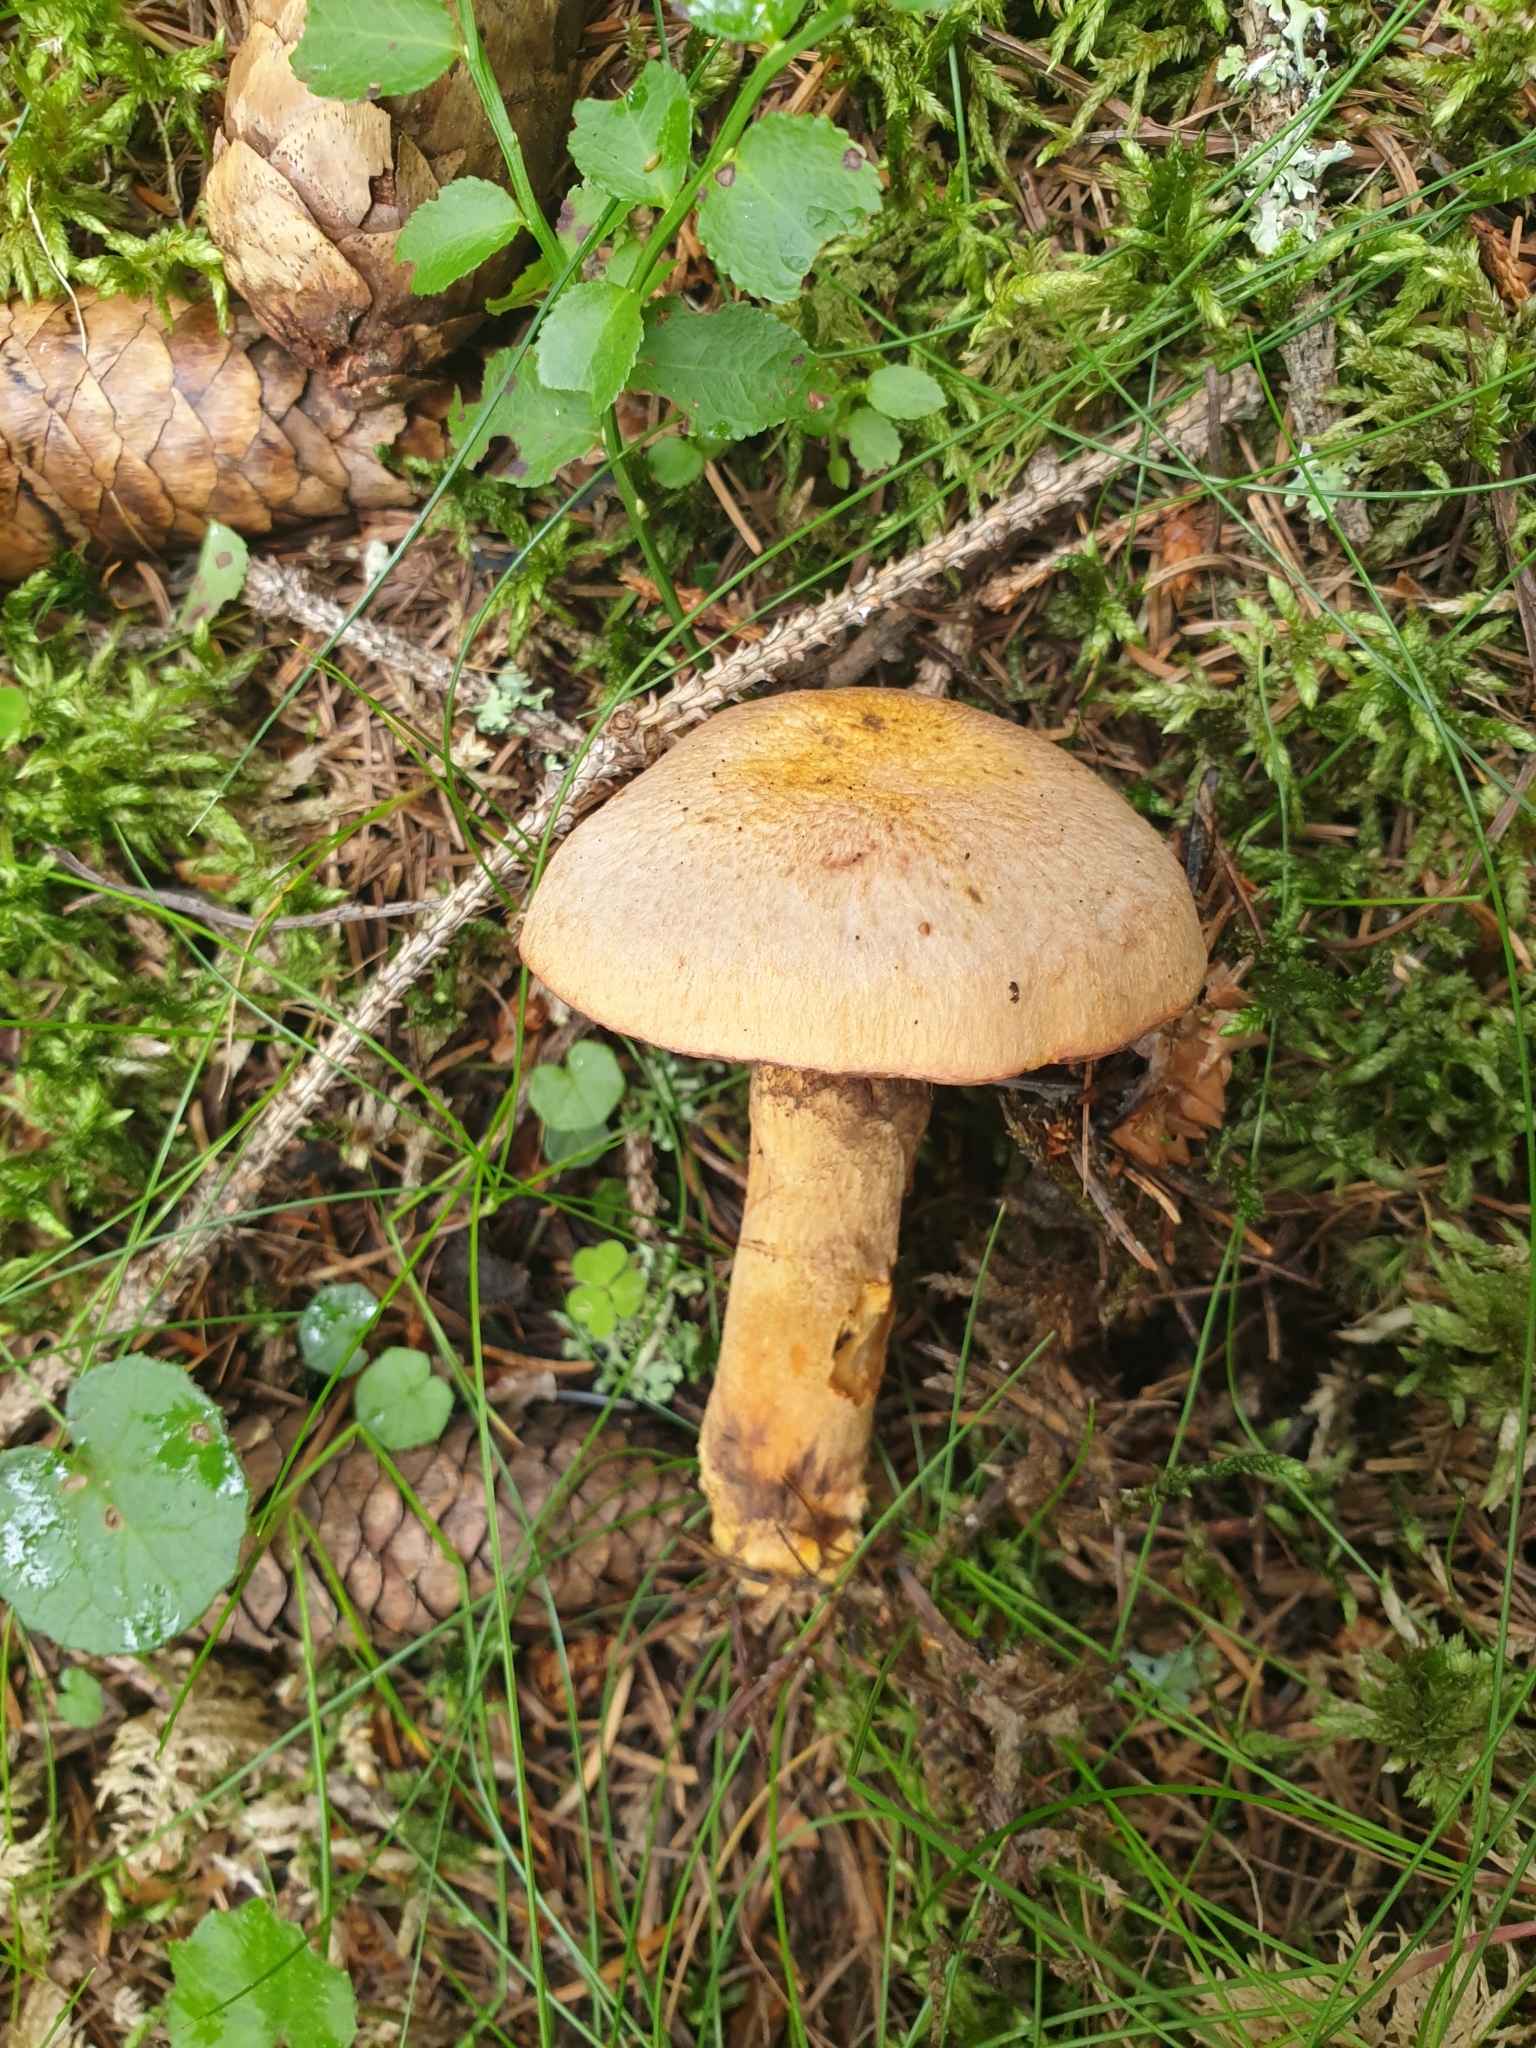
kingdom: Fungi
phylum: Basidiomycota
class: Agaricomycetes
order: Boletales
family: Gomphidiaceae
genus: Chroogomphus
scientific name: Chroogomphus rutilus
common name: Copper spike
